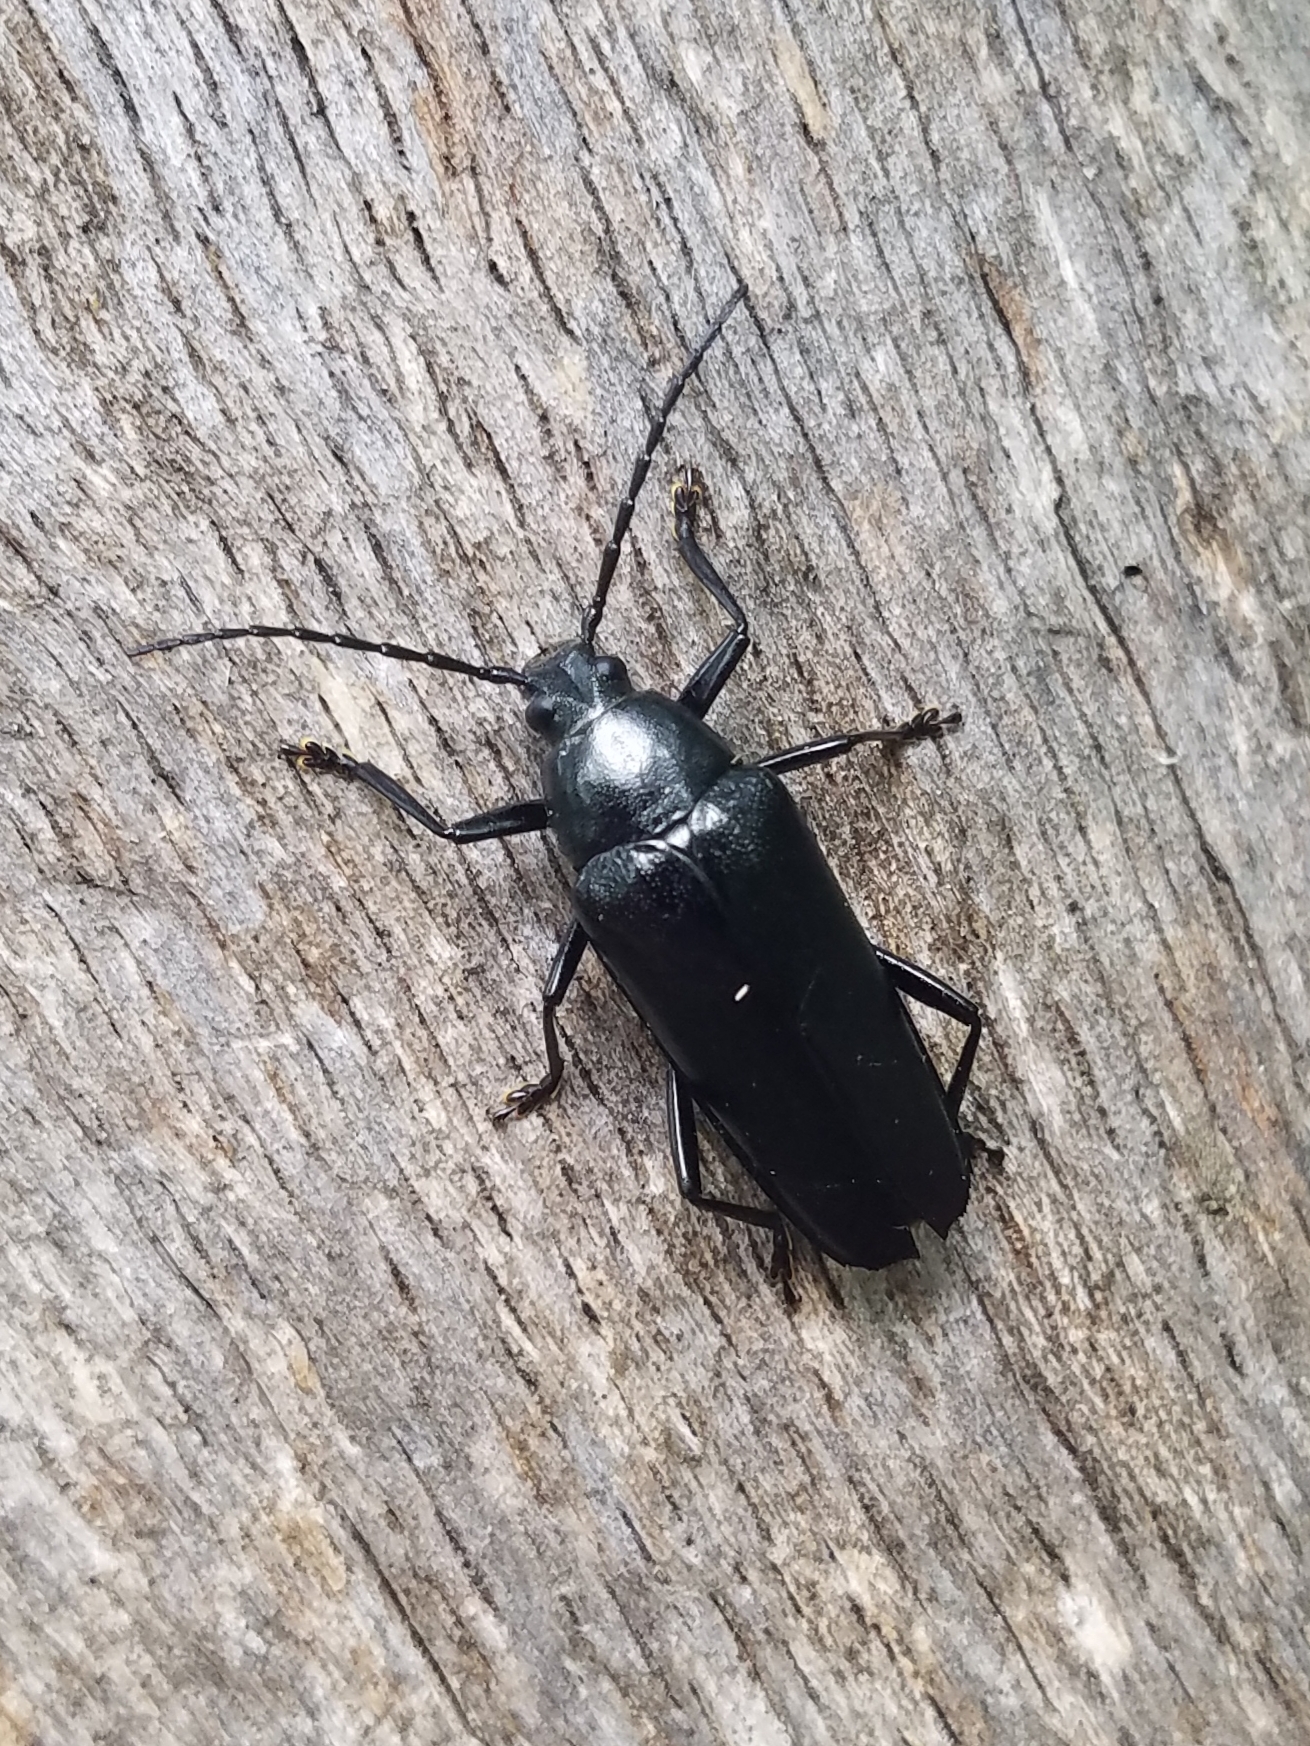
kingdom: Animalia
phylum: Arthropoda
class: Insecta
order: Coleoptera
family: Cerambycidae
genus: Sphenostethus
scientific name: Sphenostethus taslei
